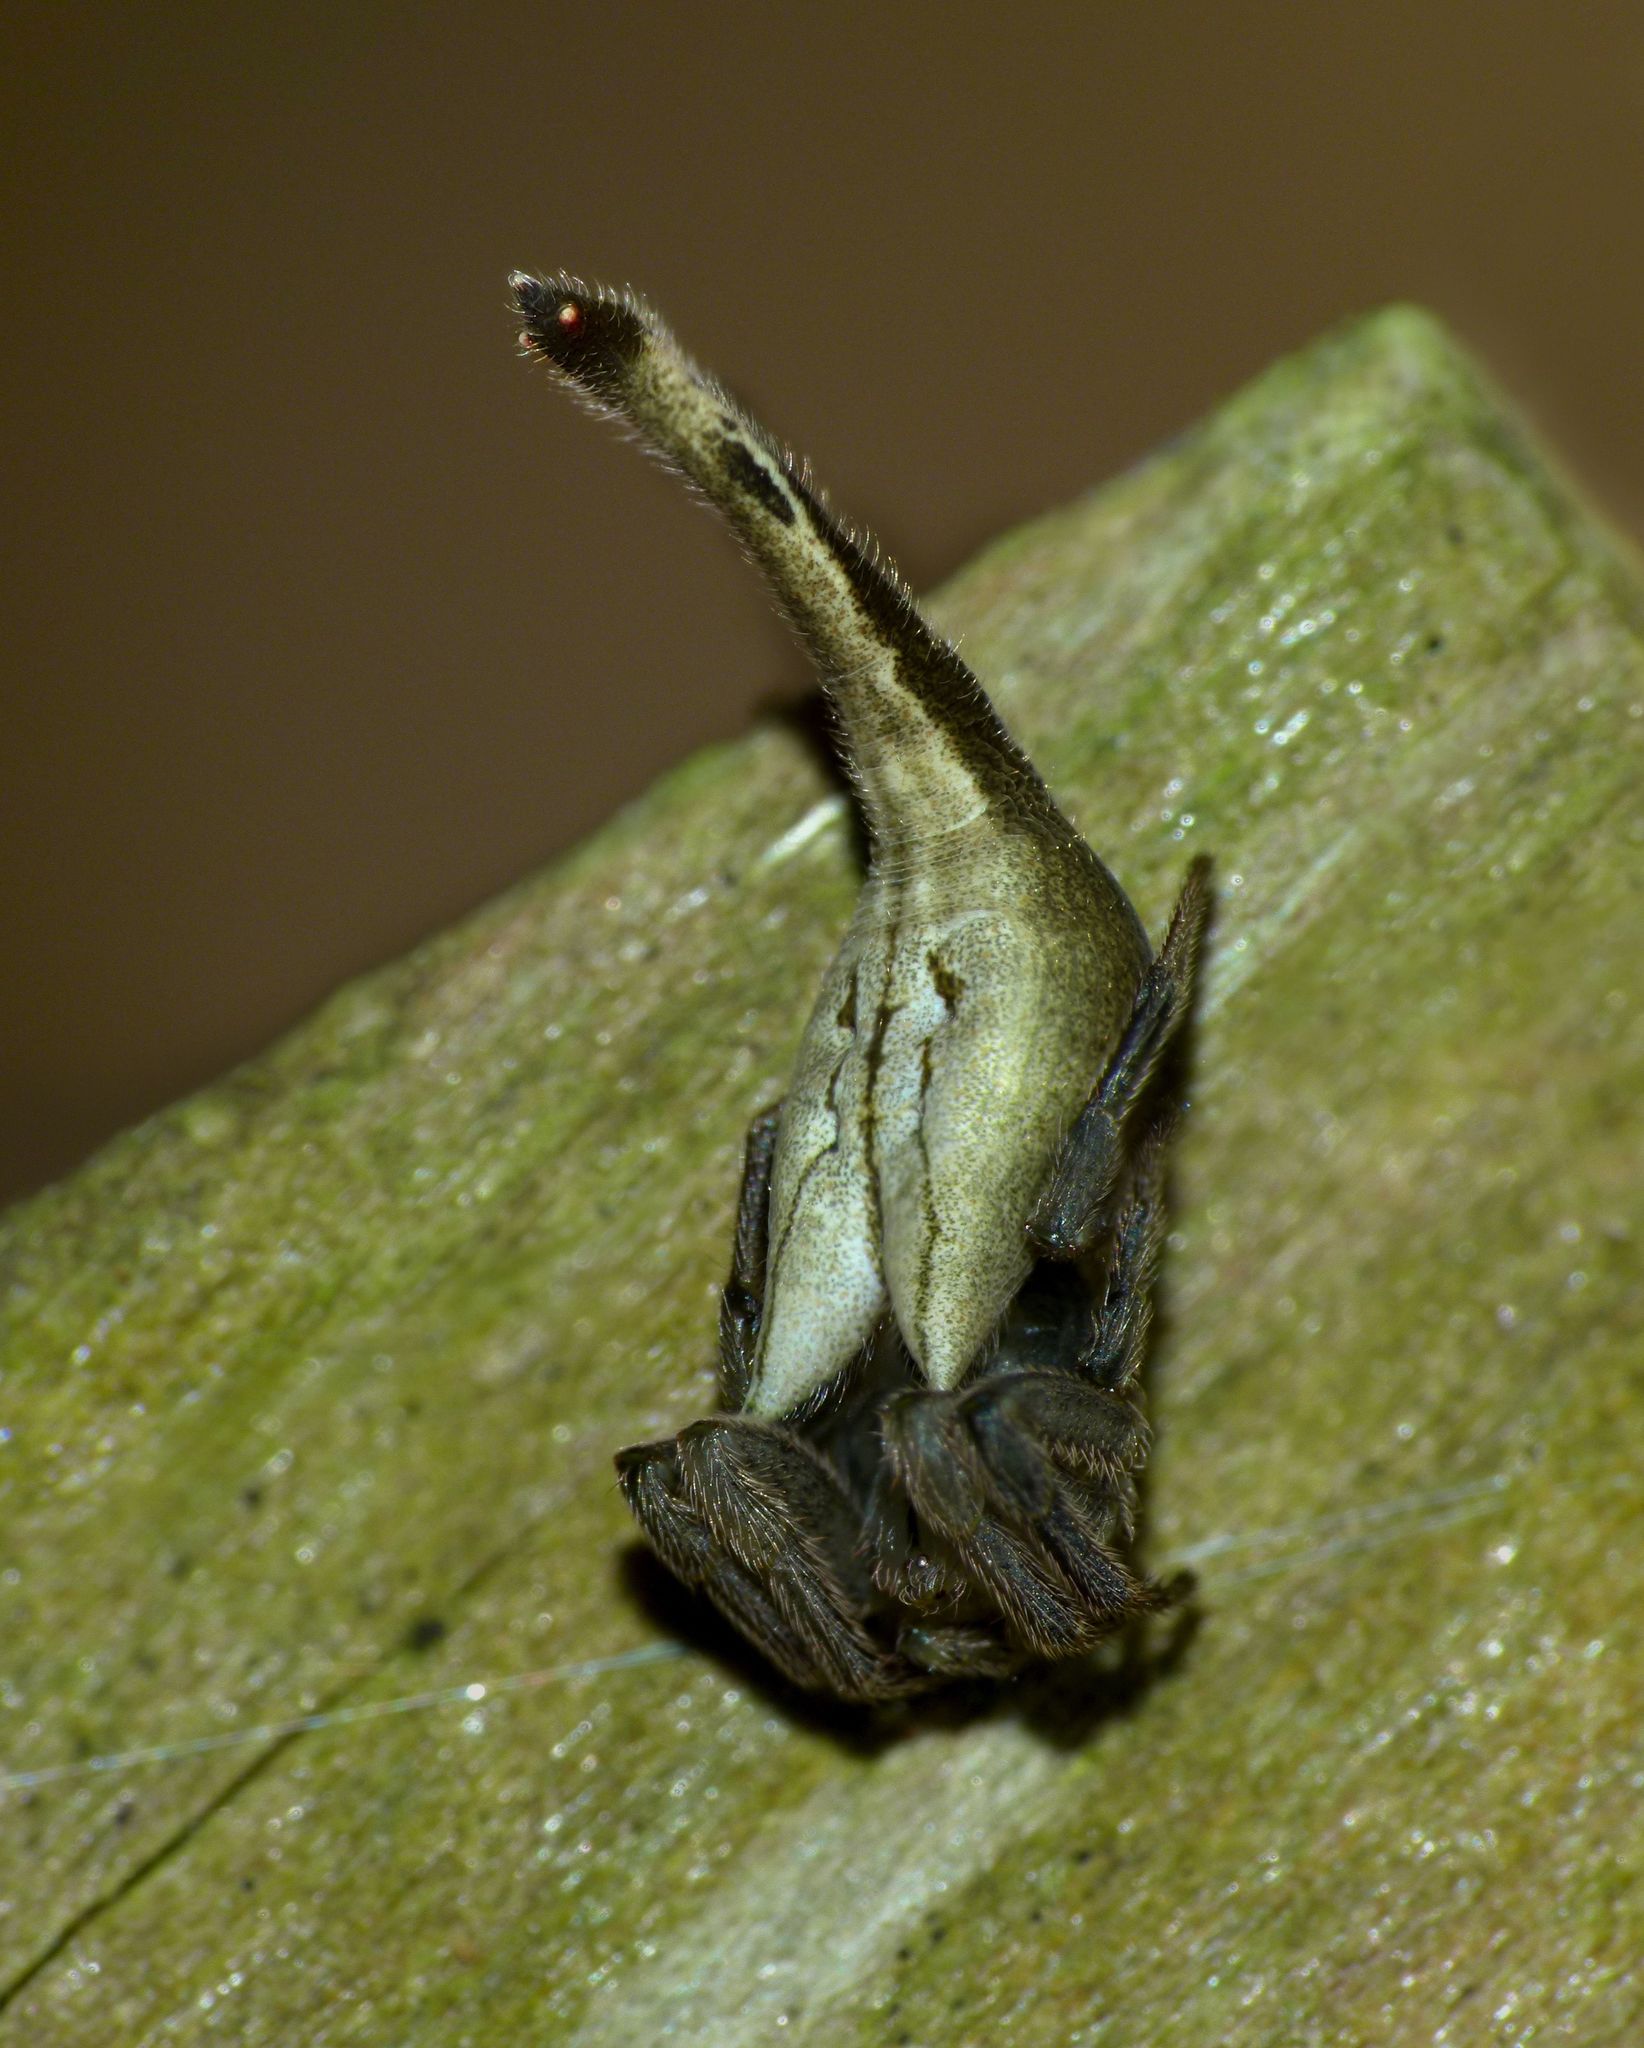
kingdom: Animalia
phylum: Arthropoda
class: Arachnida
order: Araneae
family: Araneidae
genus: Arachnura
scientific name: Arachnura feredayi
